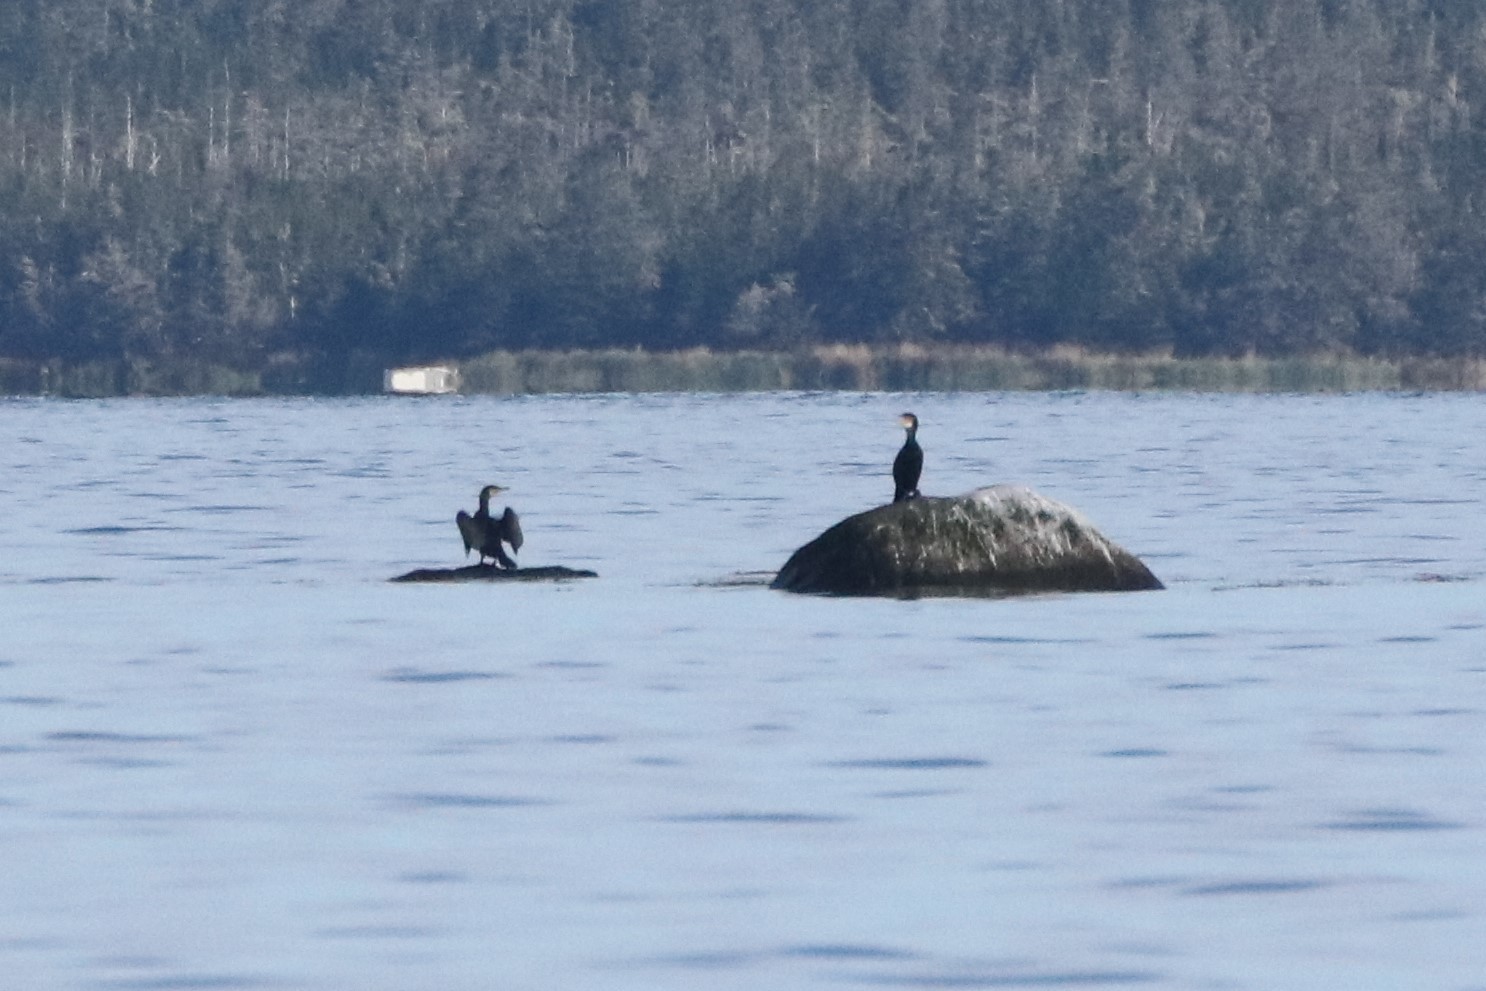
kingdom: Animalia
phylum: Chordata
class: Aves
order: Suliformes
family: Phalacrocoracidae
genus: Phalacrocorax
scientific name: Phalacrocorax carbo
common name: Great cormorant
